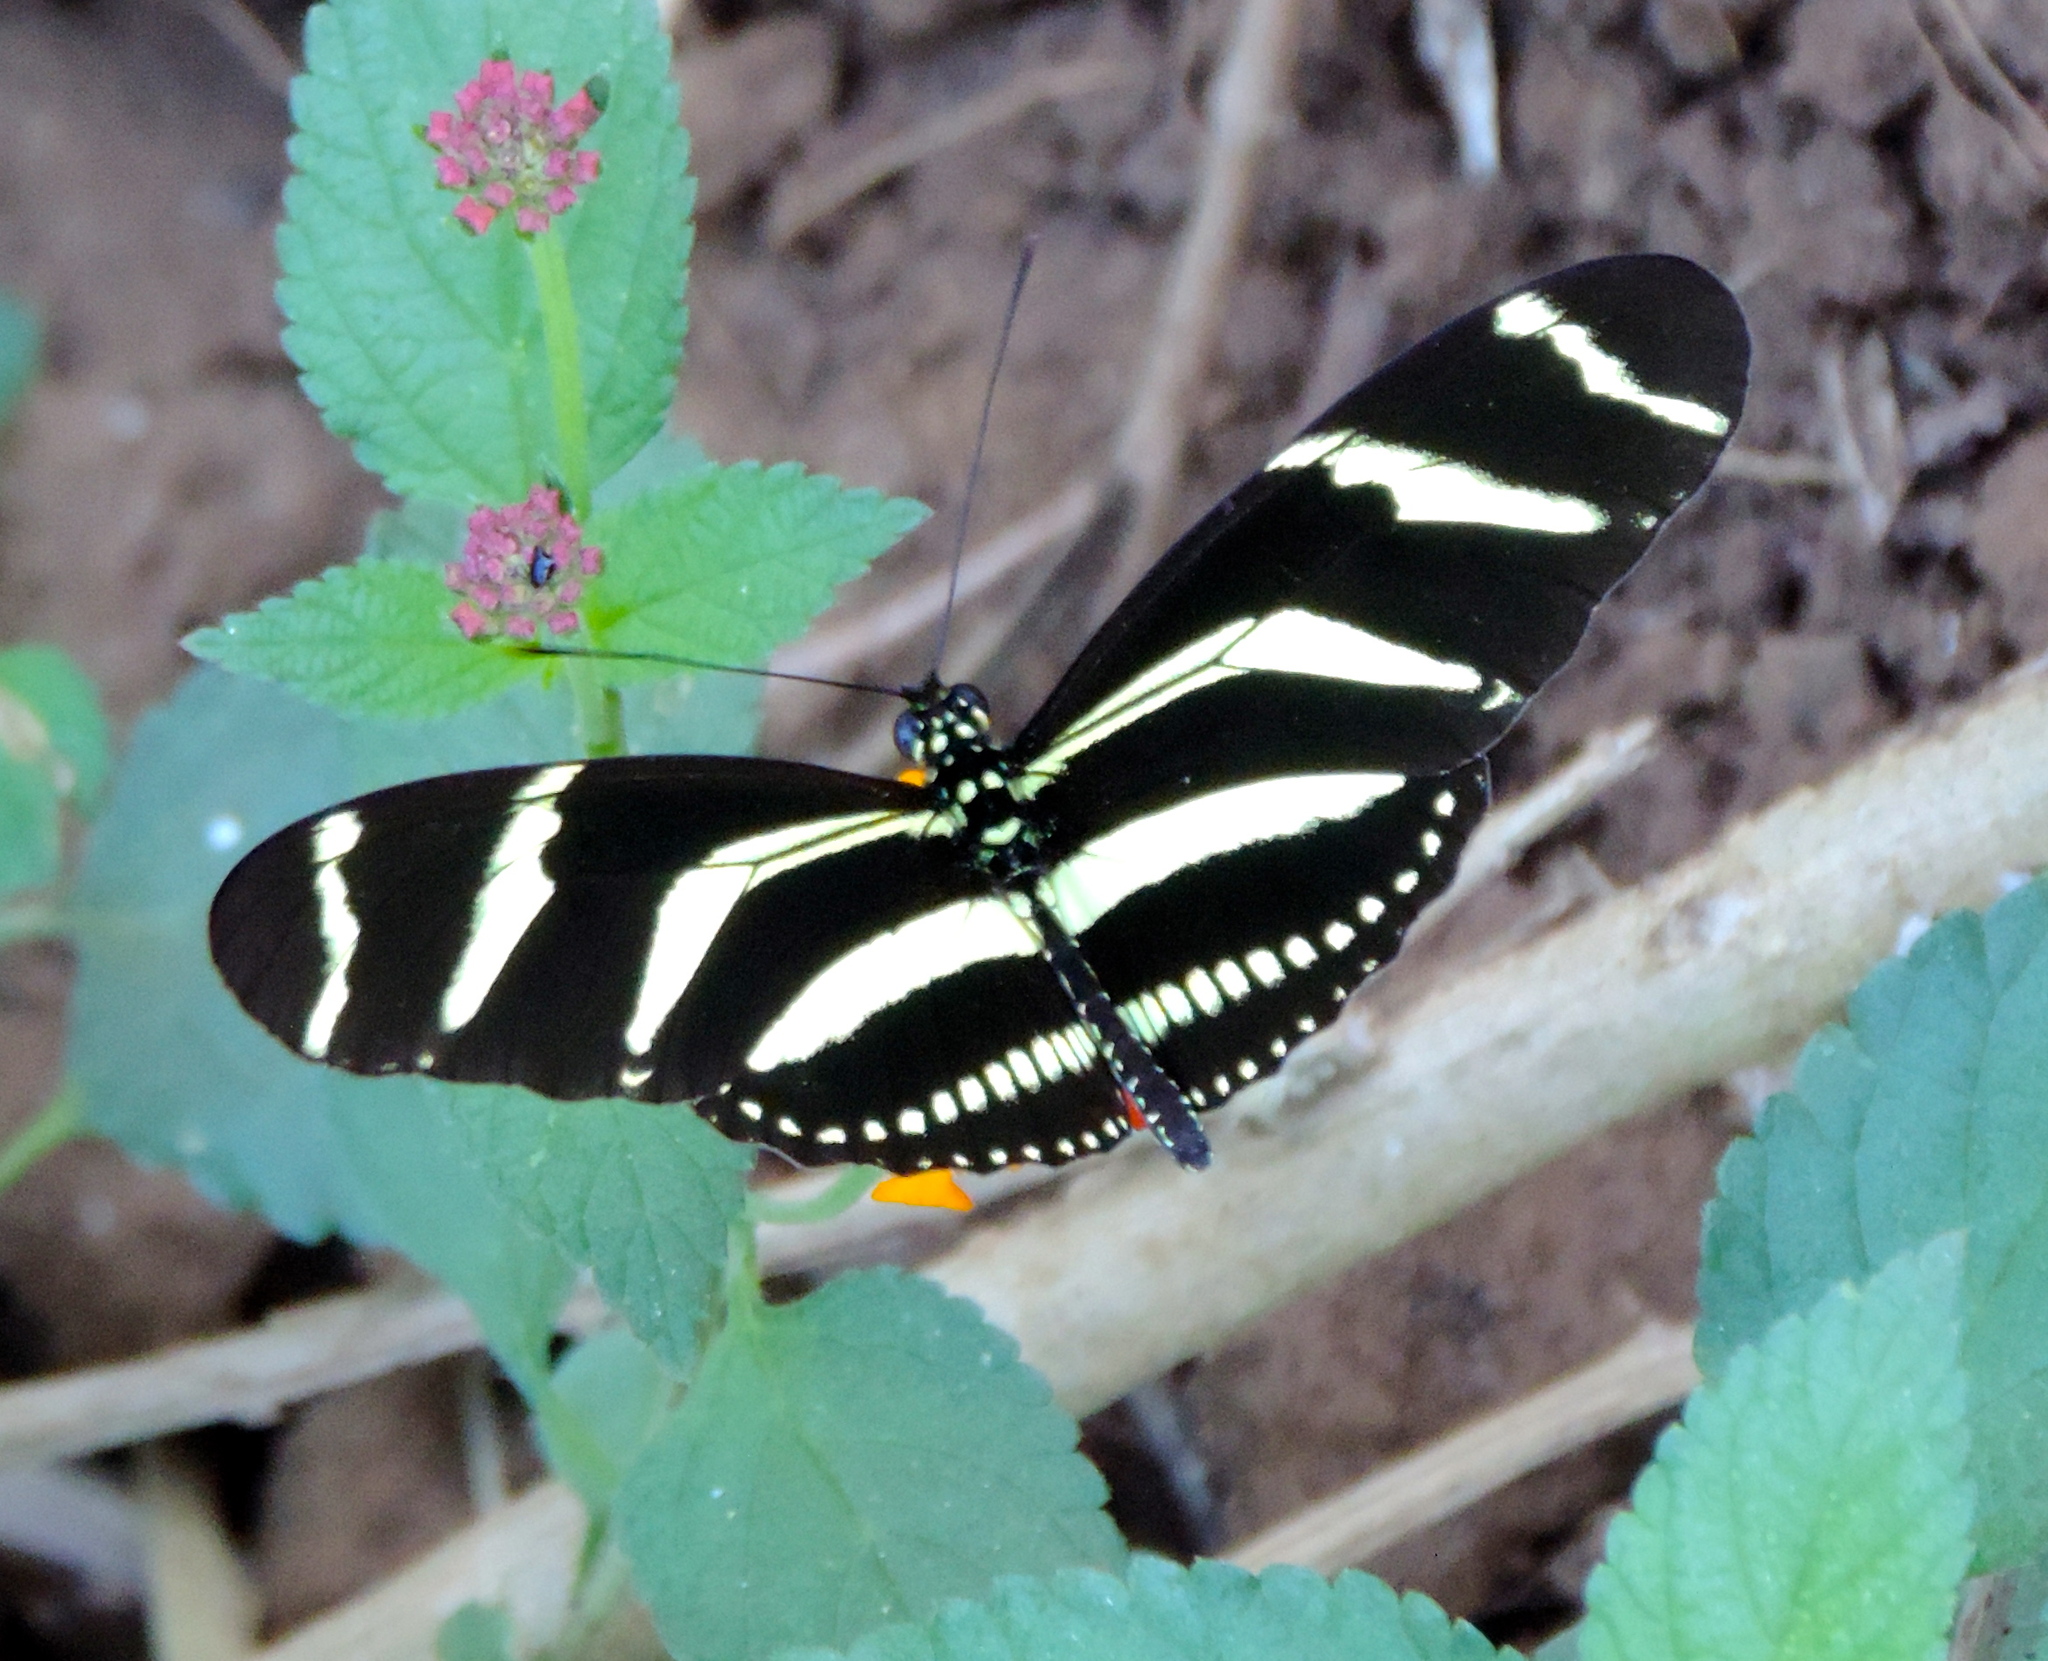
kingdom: Animalia
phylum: Arthropoda
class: Insecta
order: Lepidoptera
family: Nymphalidae
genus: Heliconius
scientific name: Heliconius charithonia
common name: Zebra long wing
